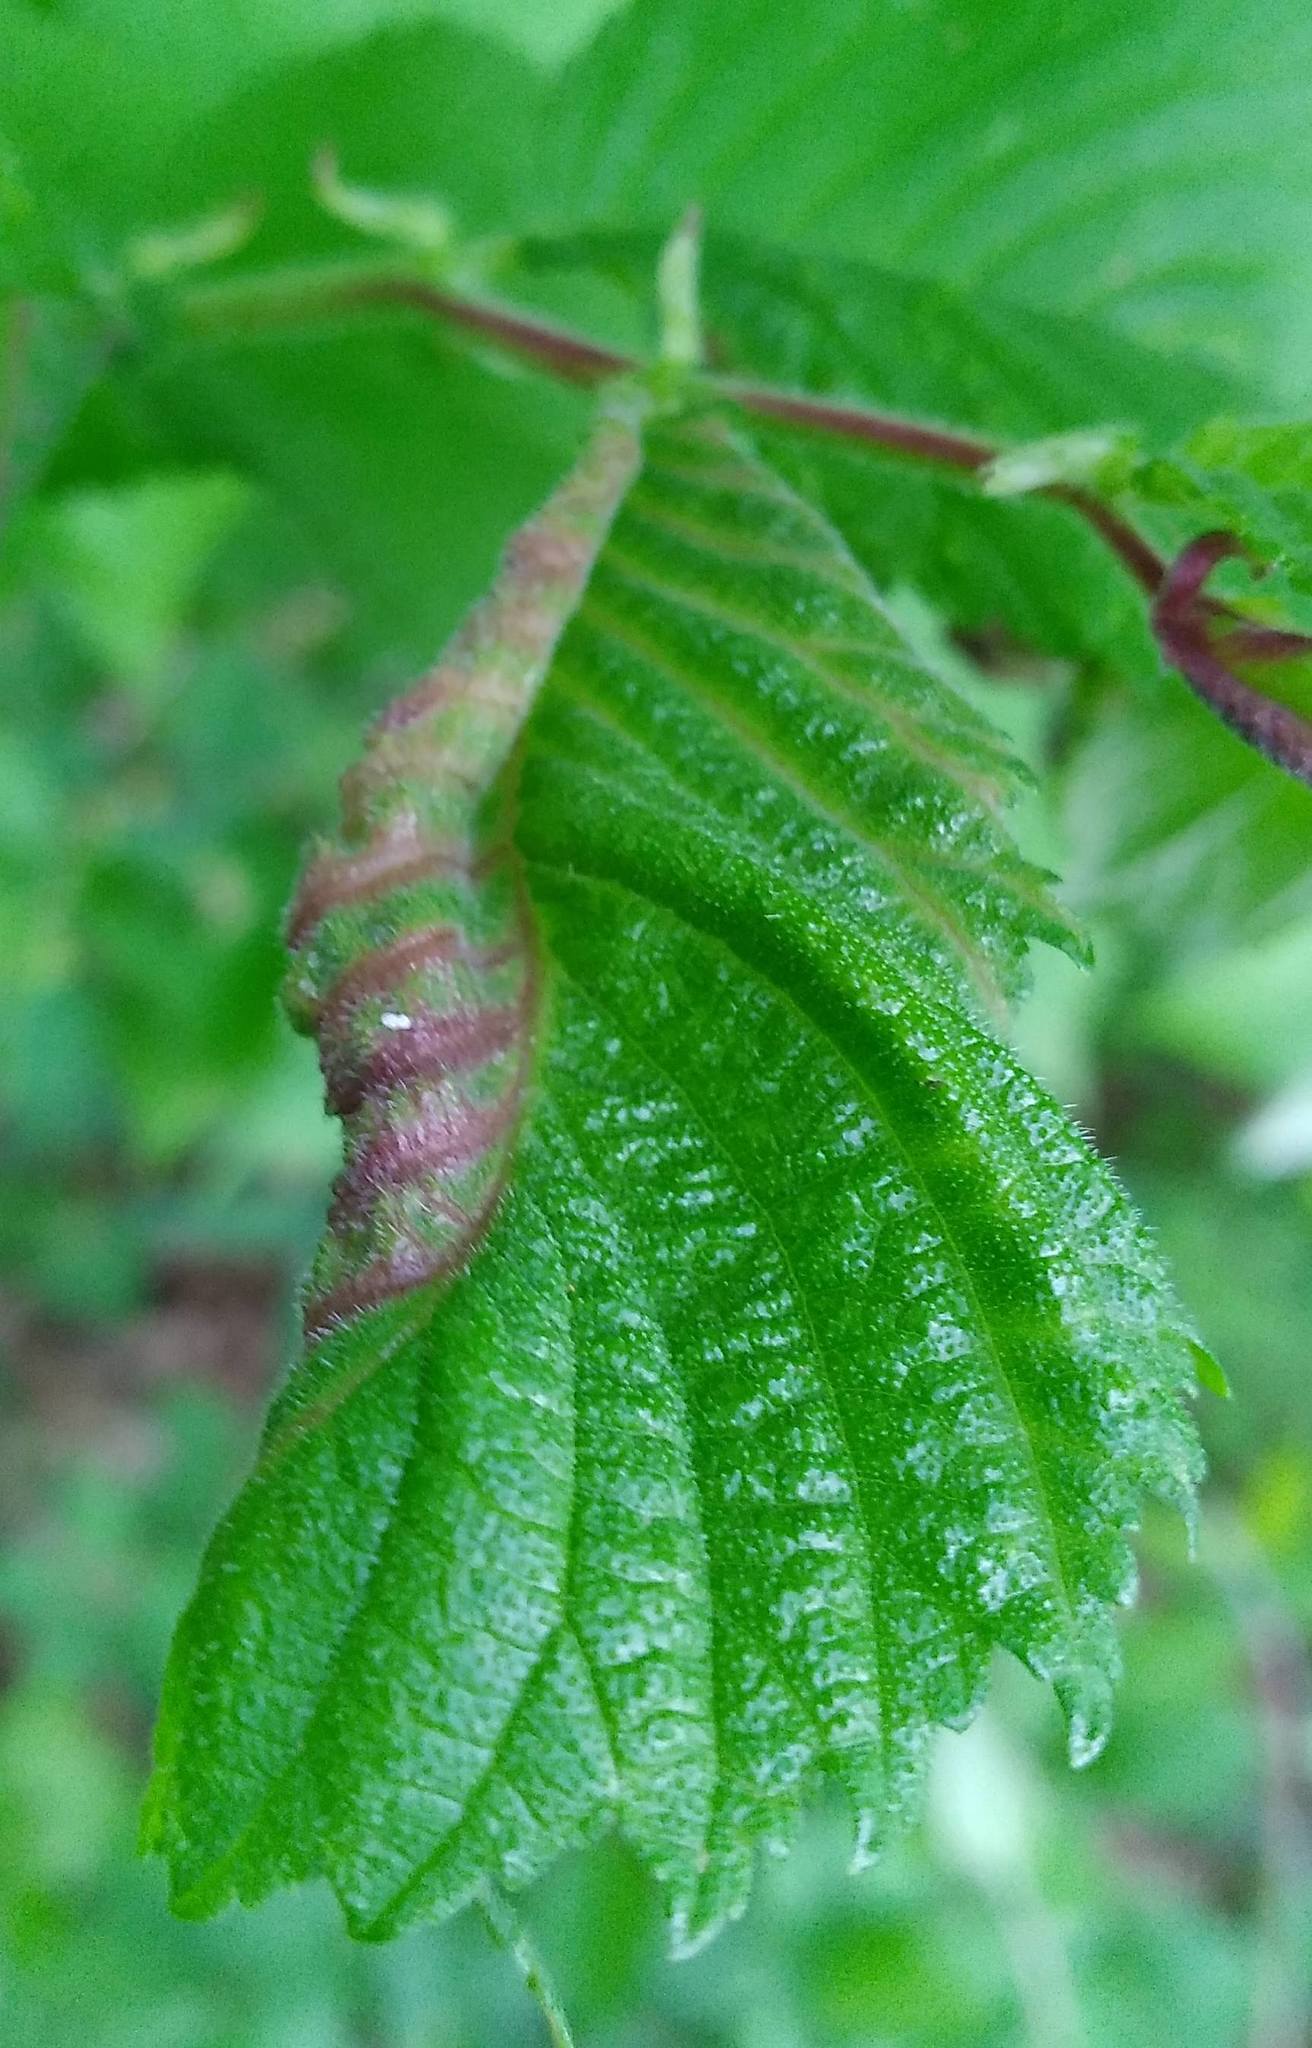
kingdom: Animalia
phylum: Arthropoda
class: Insecta
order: Hemiptera
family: Aphididae
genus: Eriosoma
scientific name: Eriosoma americanum
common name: Woolly elm aphid
